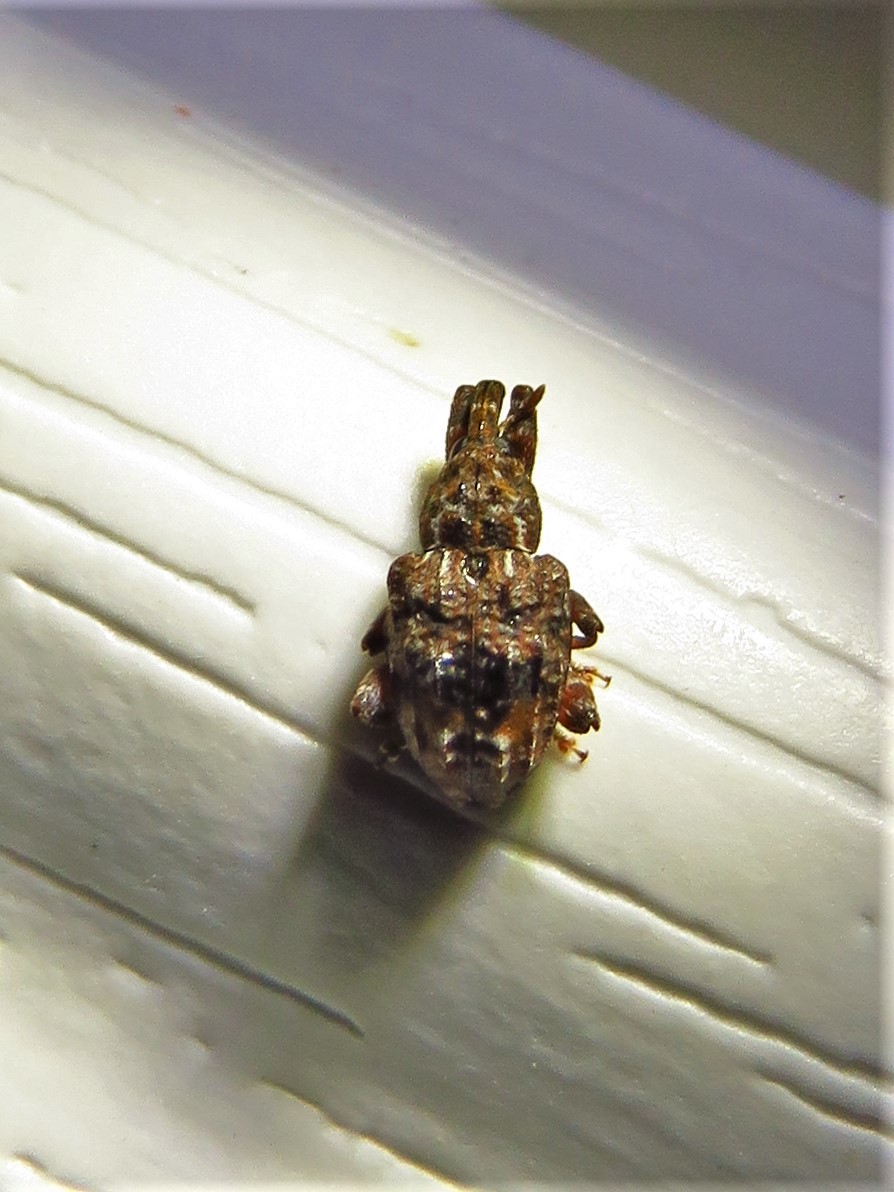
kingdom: Animalia
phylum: Arthropoda
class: Insecta
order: Coleoptera
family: Curculionidae
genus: Conotrachelus
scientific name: Conotrachelus nenuphar
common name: Plum curculio
